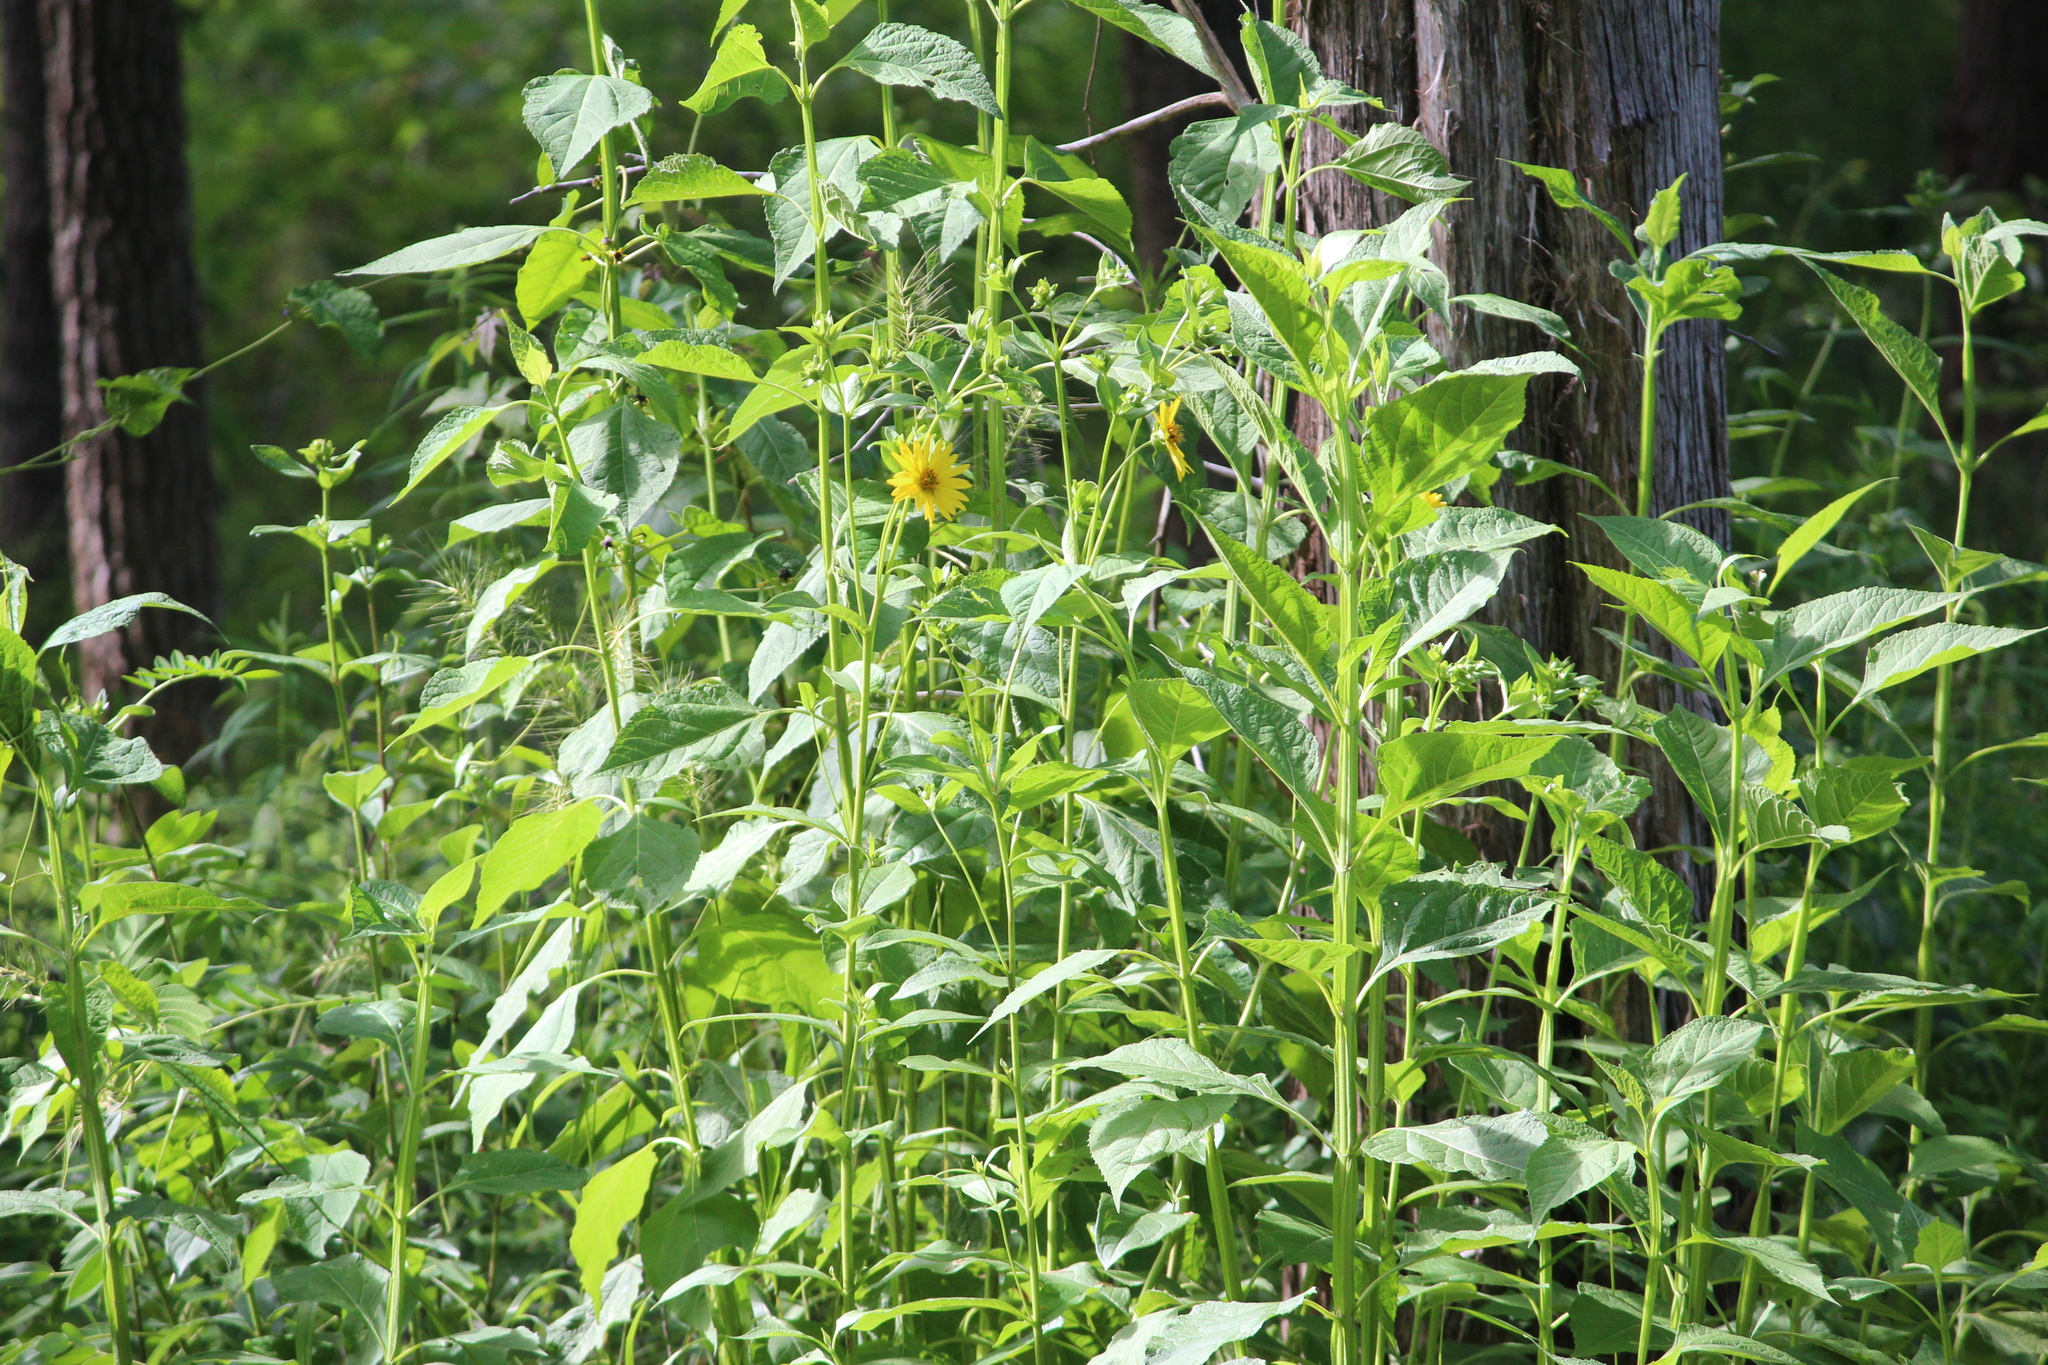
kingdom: Plantae
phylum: Tracheophyta
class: Magnoliopsida
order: Asterales
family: Asteraceae
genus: Helianthus
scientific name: Helianthus tuberosus
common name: Jerusalem artichoke
